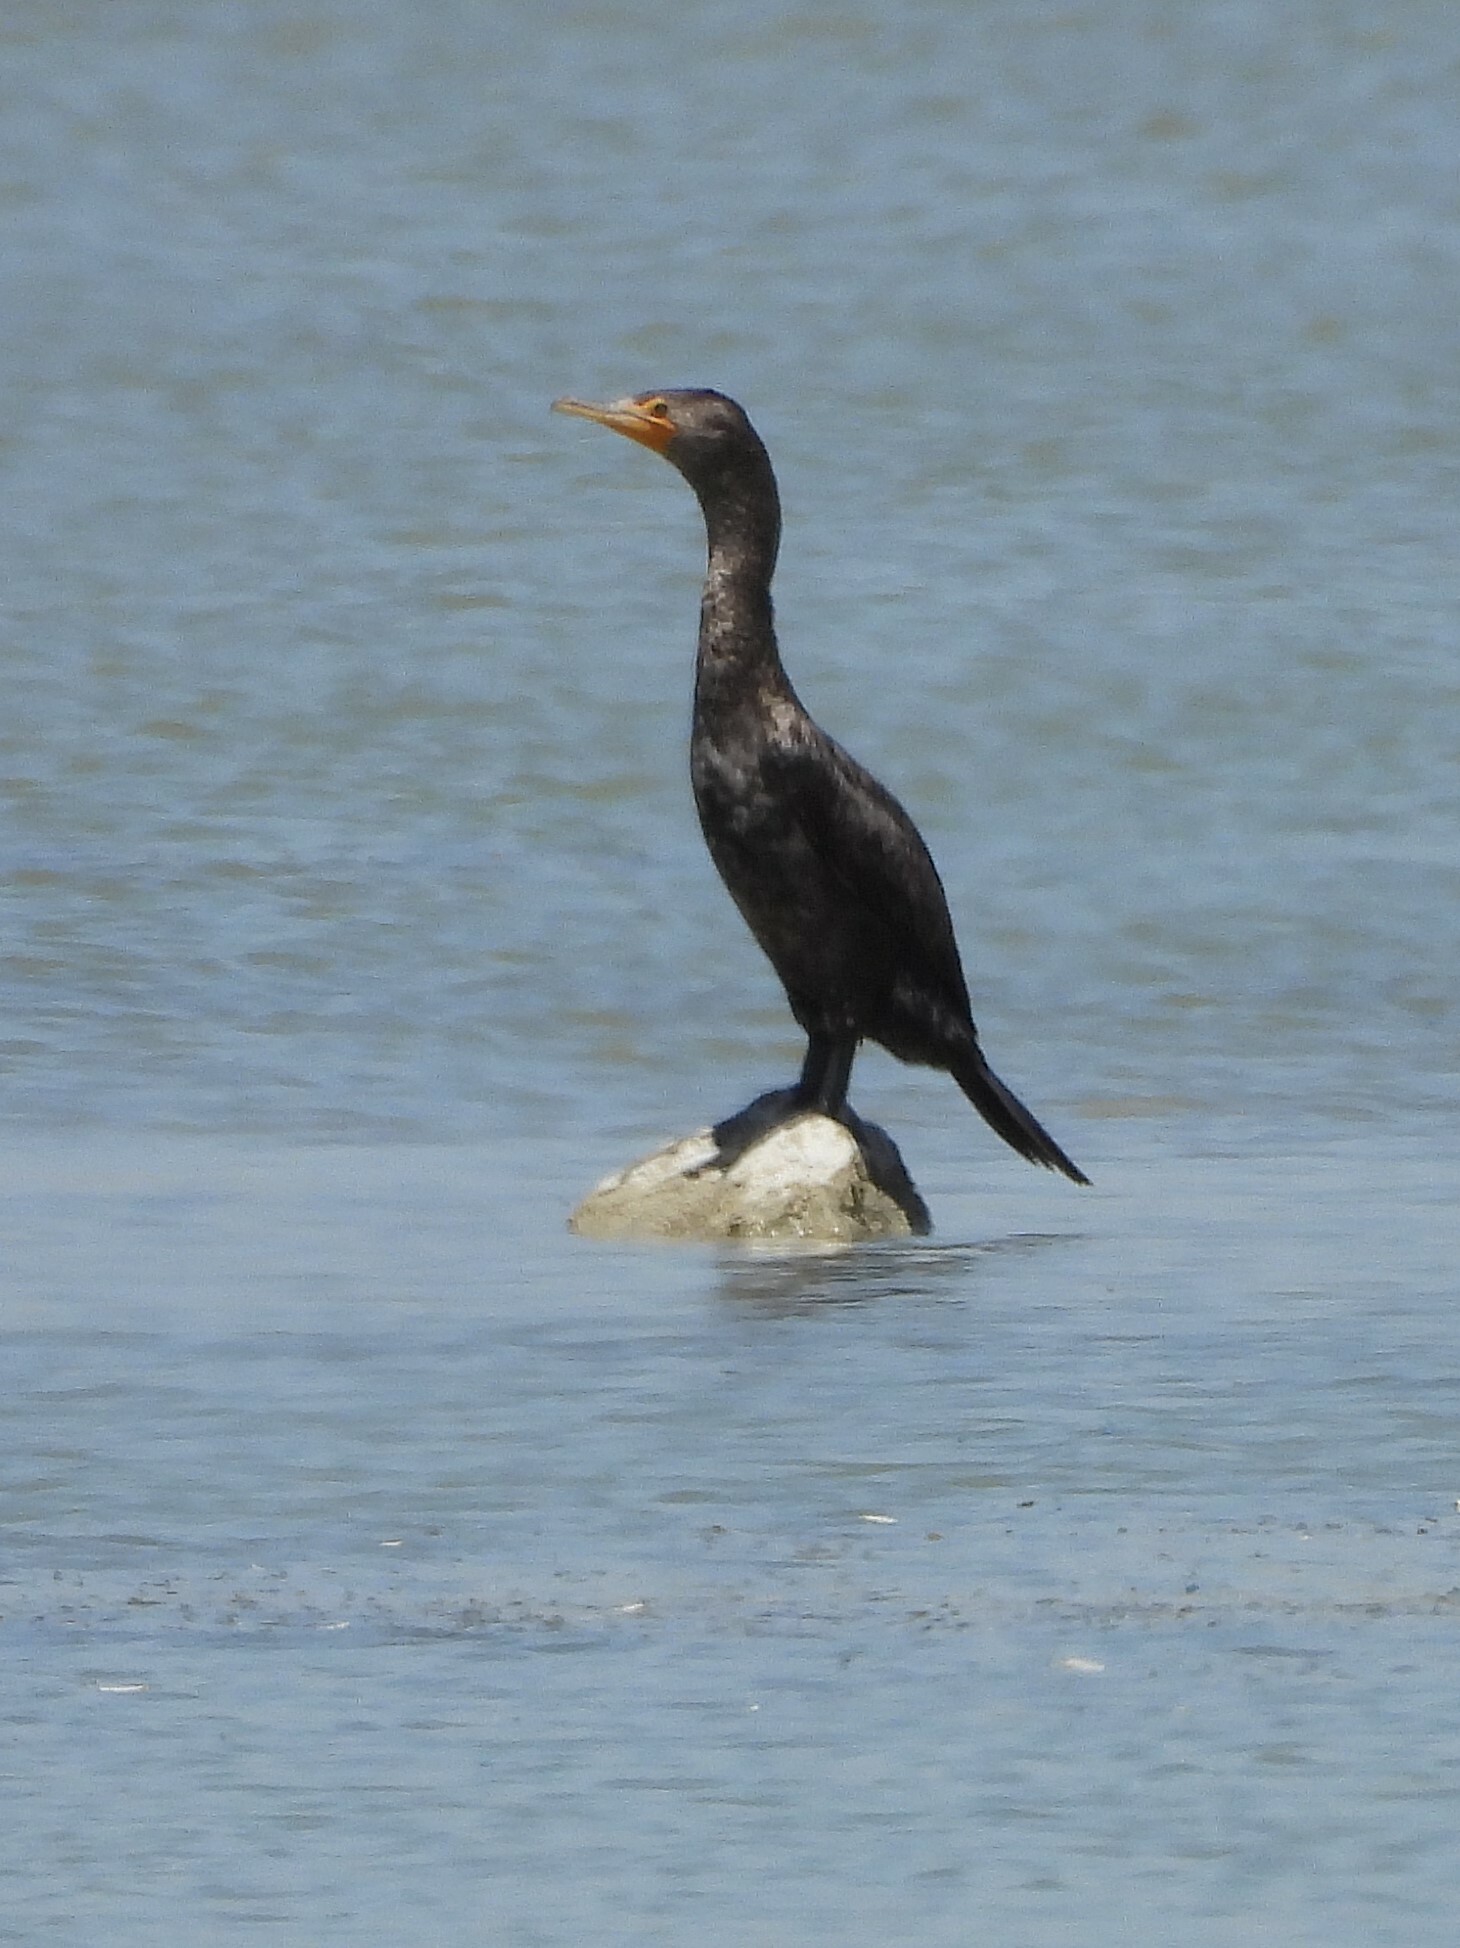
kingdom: Animalia
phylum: Chordata
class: Aves
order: Suliformes
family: Phalacrocoracidae
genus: Phalacrocorax
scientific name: Phalacrocorax auritus
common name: Double-crested cormorant
